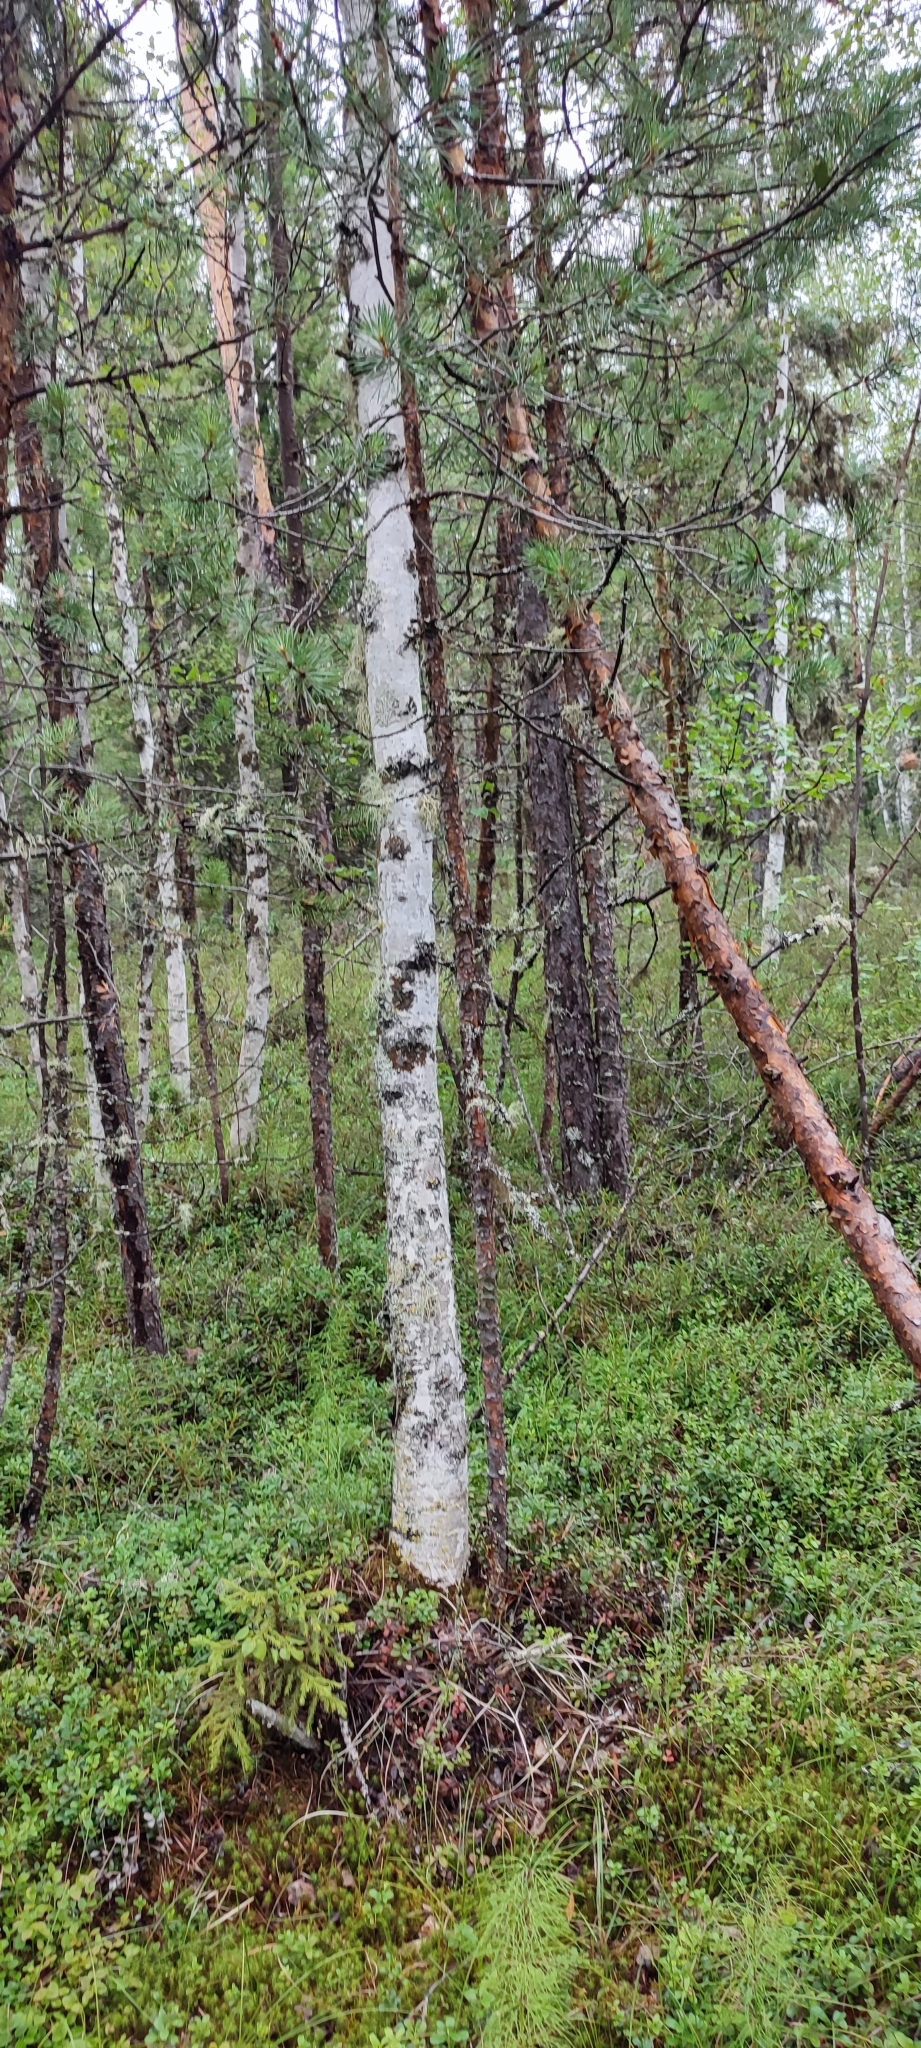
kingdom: Plantae
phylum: Tracheophyta
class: Magnoliopsida
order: Fagales
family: Betulaceae
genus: Betula
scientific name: Betula pubescens
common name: Downy birch
